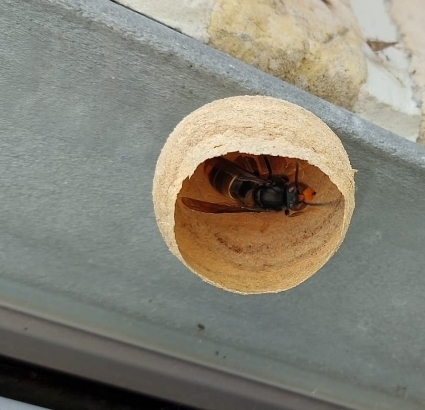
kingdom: Animalia
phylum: Arthropoda
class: Insecta
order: Hymenoptera
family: Vespidae
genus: Vespa
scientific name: Vespa velutina
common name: Asian hornet
